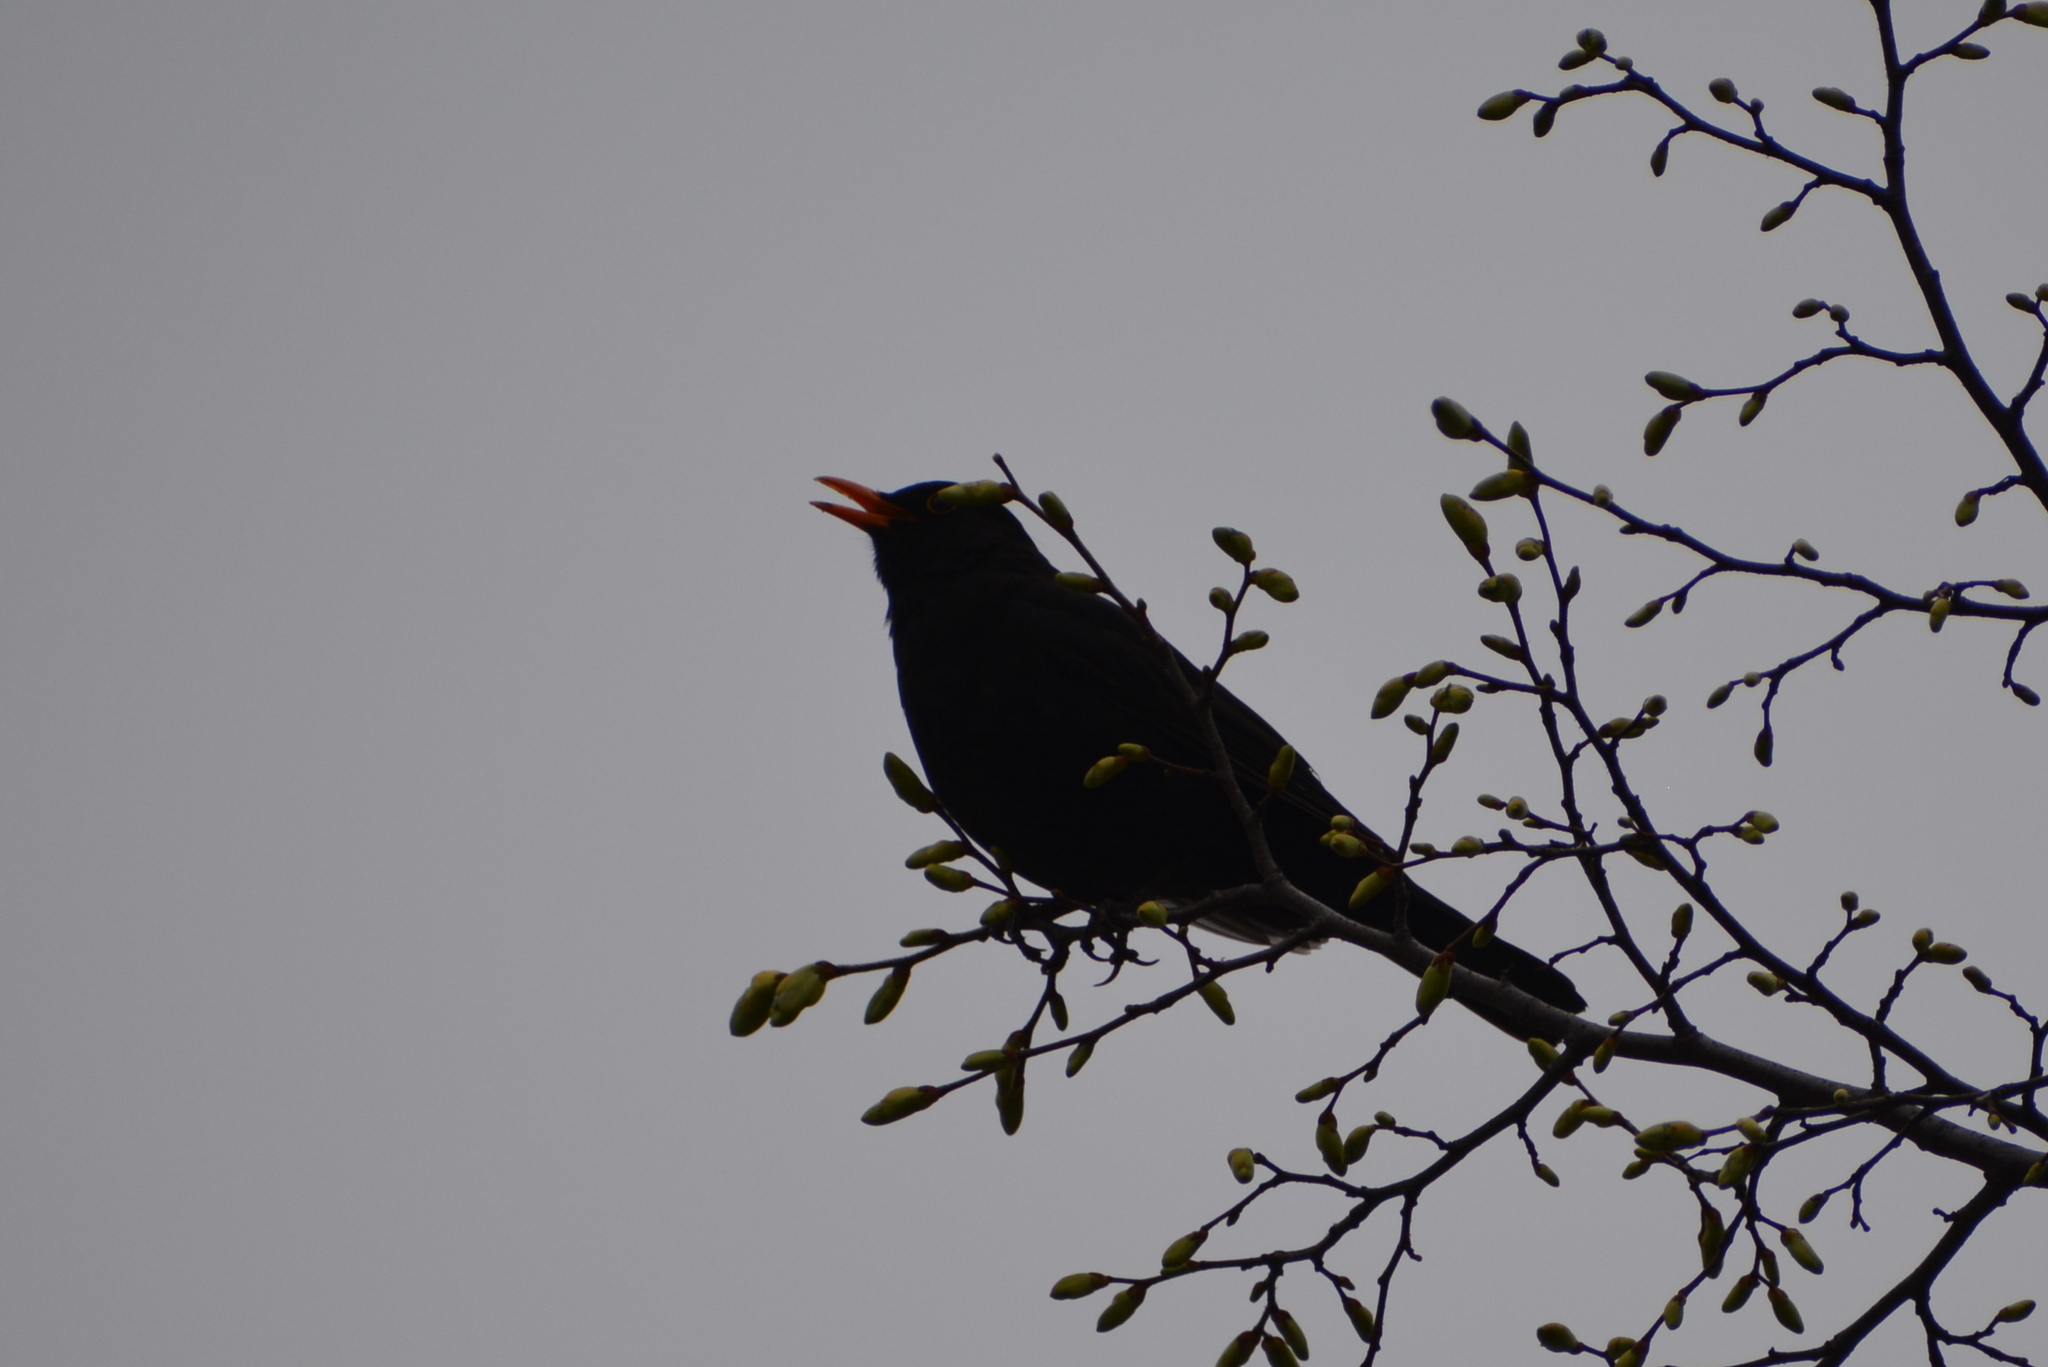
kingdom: Animalia
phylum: Chordata
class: Aves
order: Passeriformes
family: Turdidae
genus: Turdus
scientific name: Turdus merula
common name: Common blackbird
